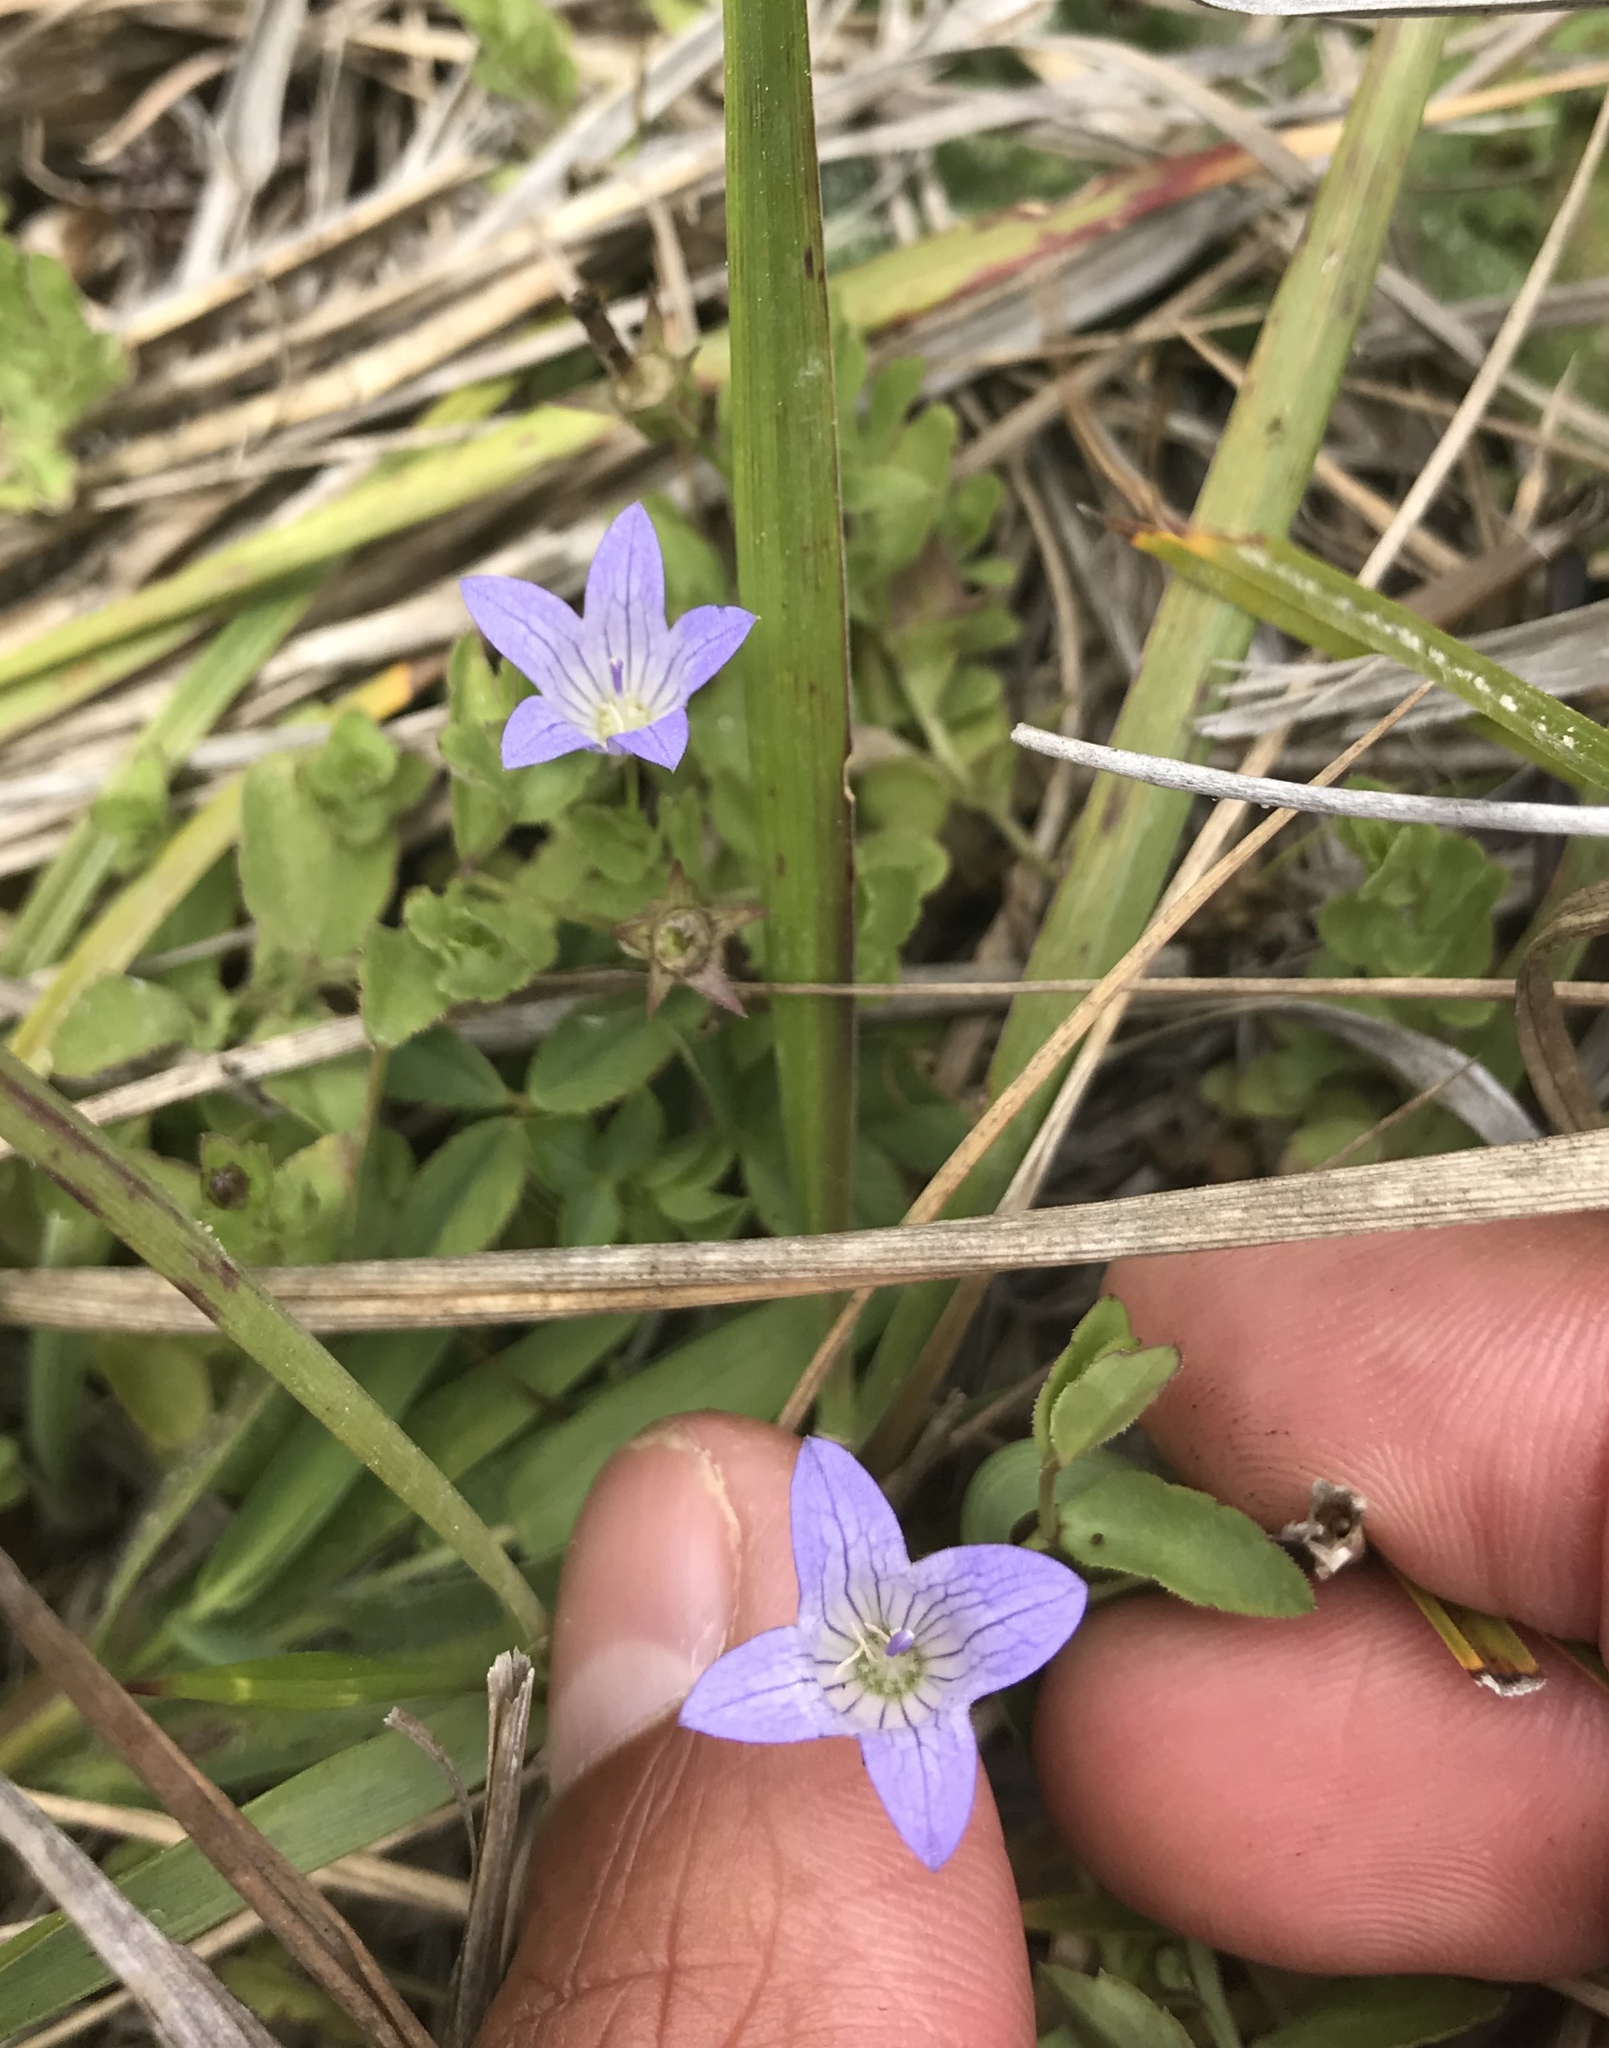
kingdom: Plantae
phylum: Tracheophyta
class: Magnoliopsida
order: Asterales
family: Campanulaceae
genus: Eastwoodiella
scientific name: Eastwoodiella californica
